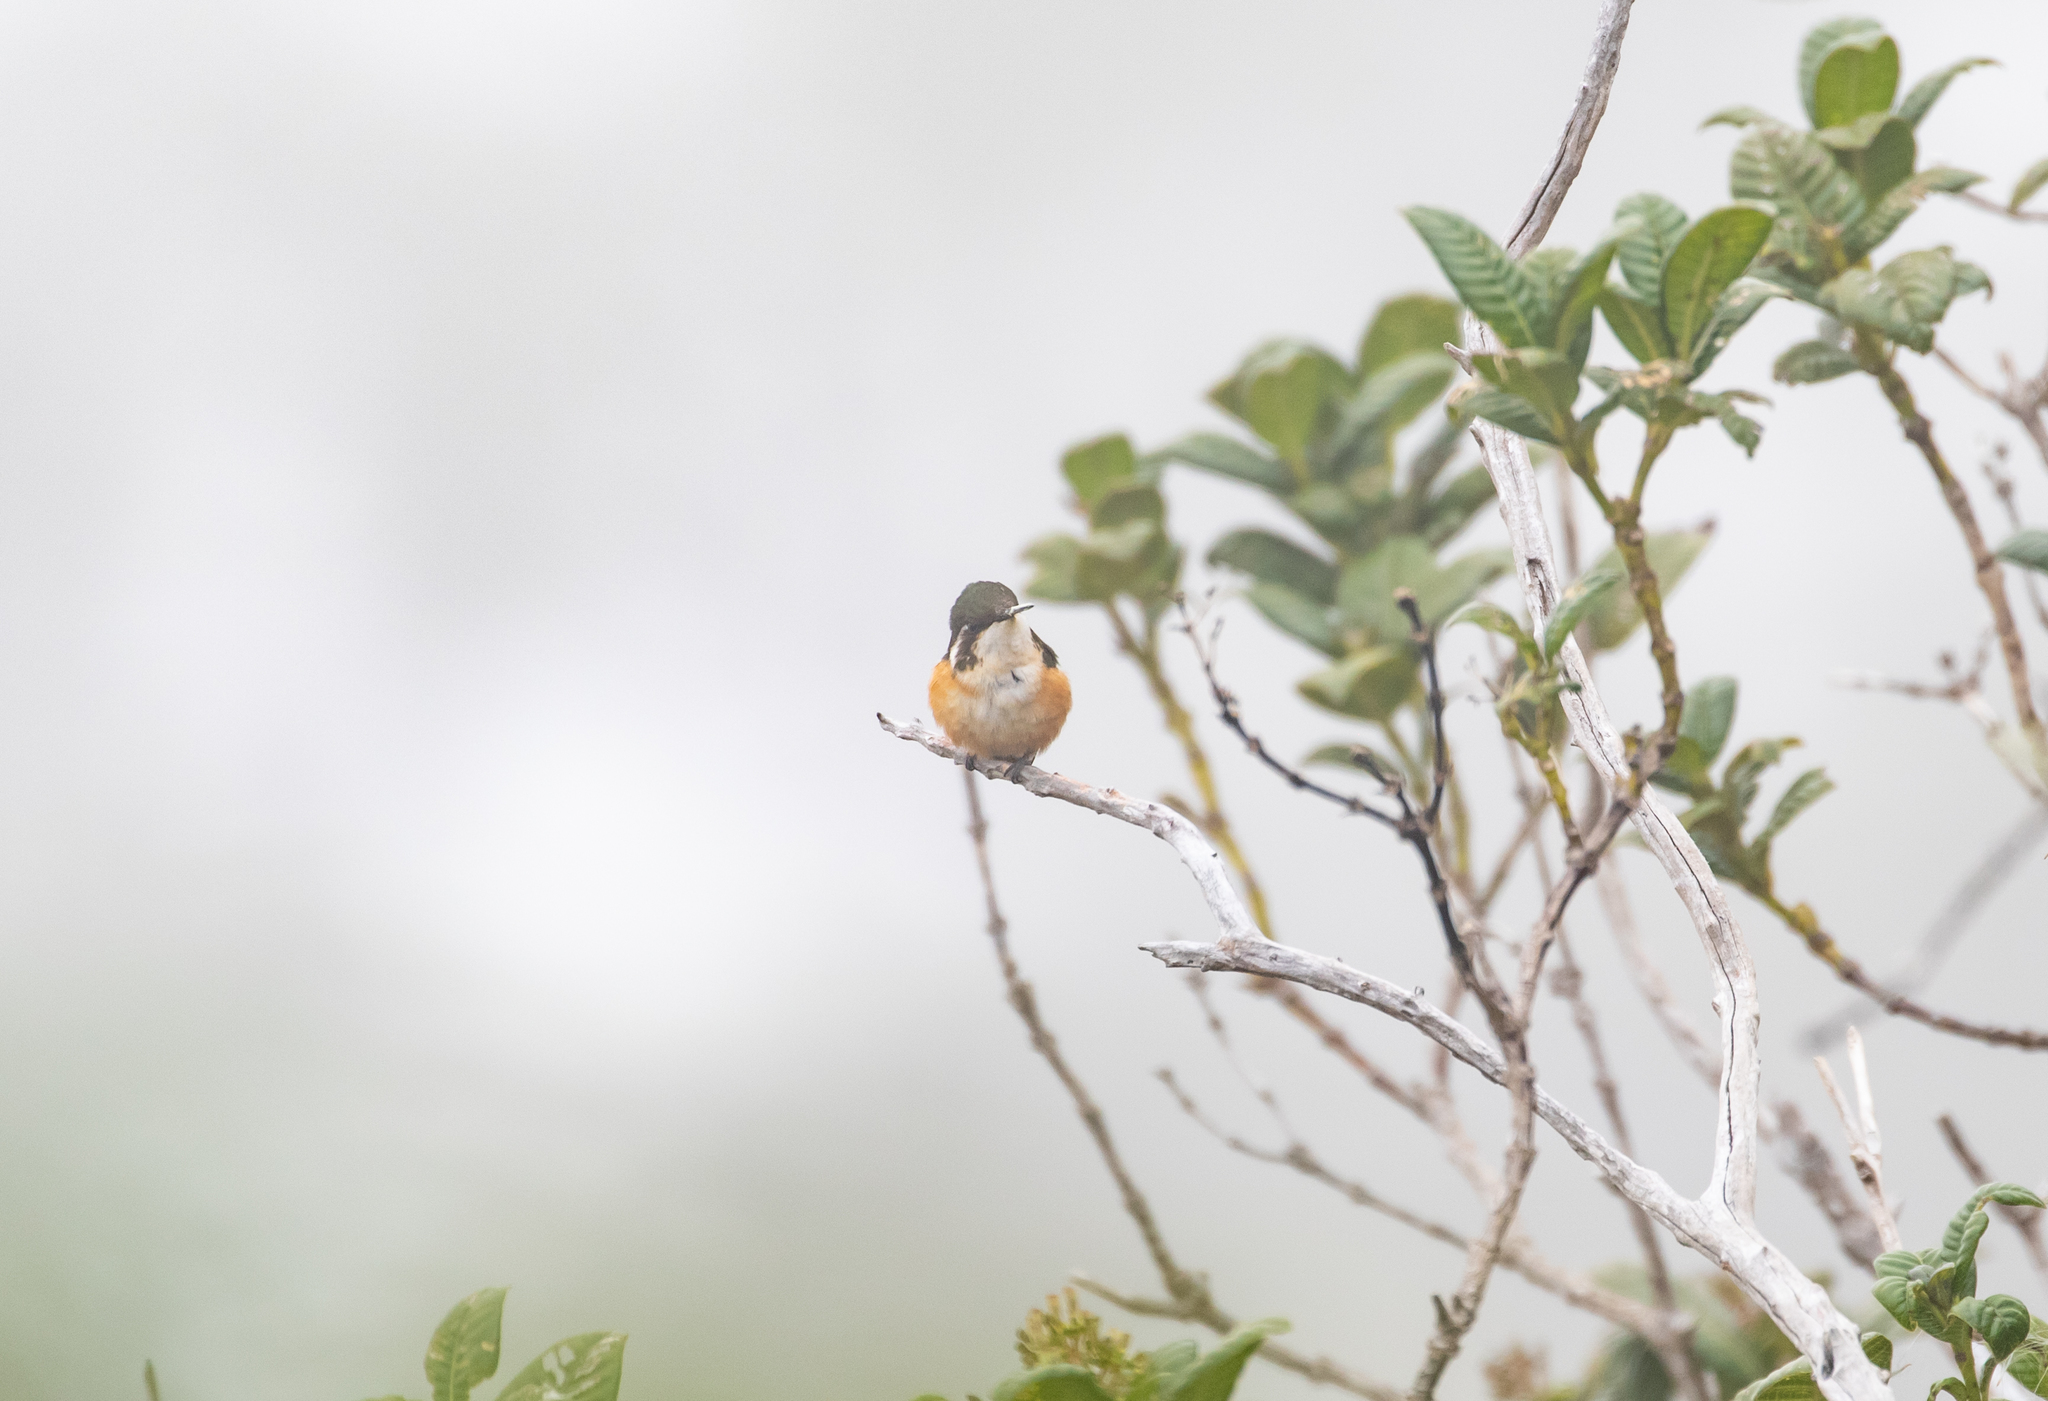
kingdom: Animalia
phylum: Chordata
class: Aves
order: Apodiformes
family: Trochilidae
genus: Chaetocercus
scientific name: Chaetocercus astreans
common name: Santa marta woodstar
